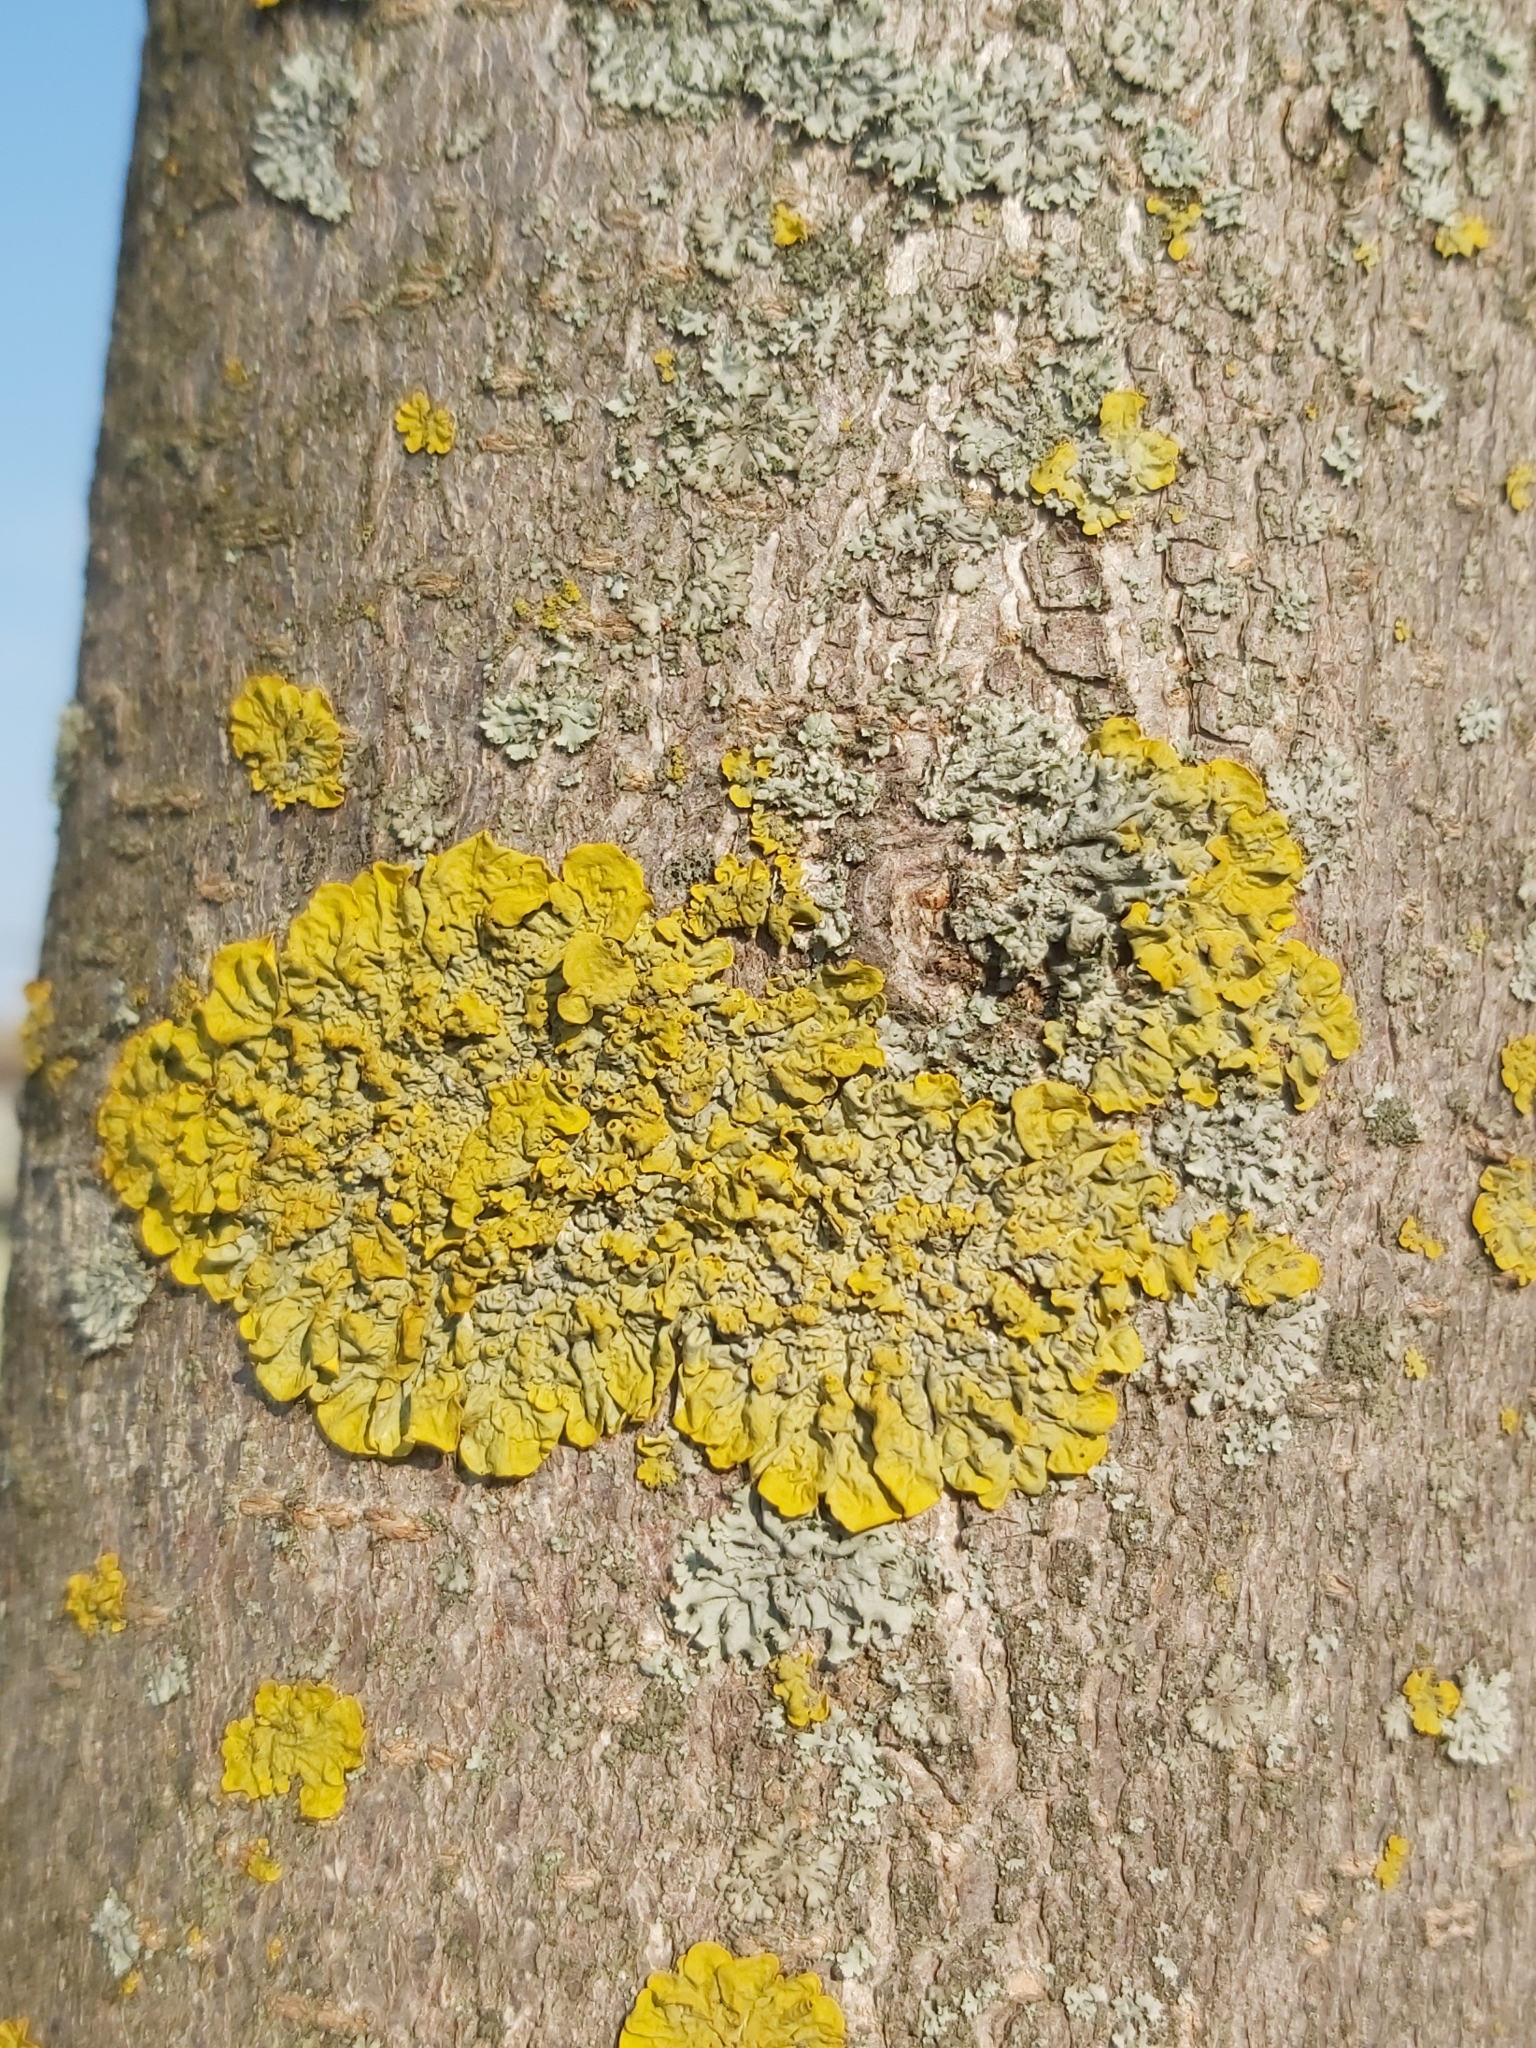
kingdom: Fungi
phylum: Ascomycota
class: Lecanoromycetes
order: Teloschistales
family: Teloschistaceae
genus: Xanthoria
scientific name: Xanthoria parietina
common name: Common orange lichen
